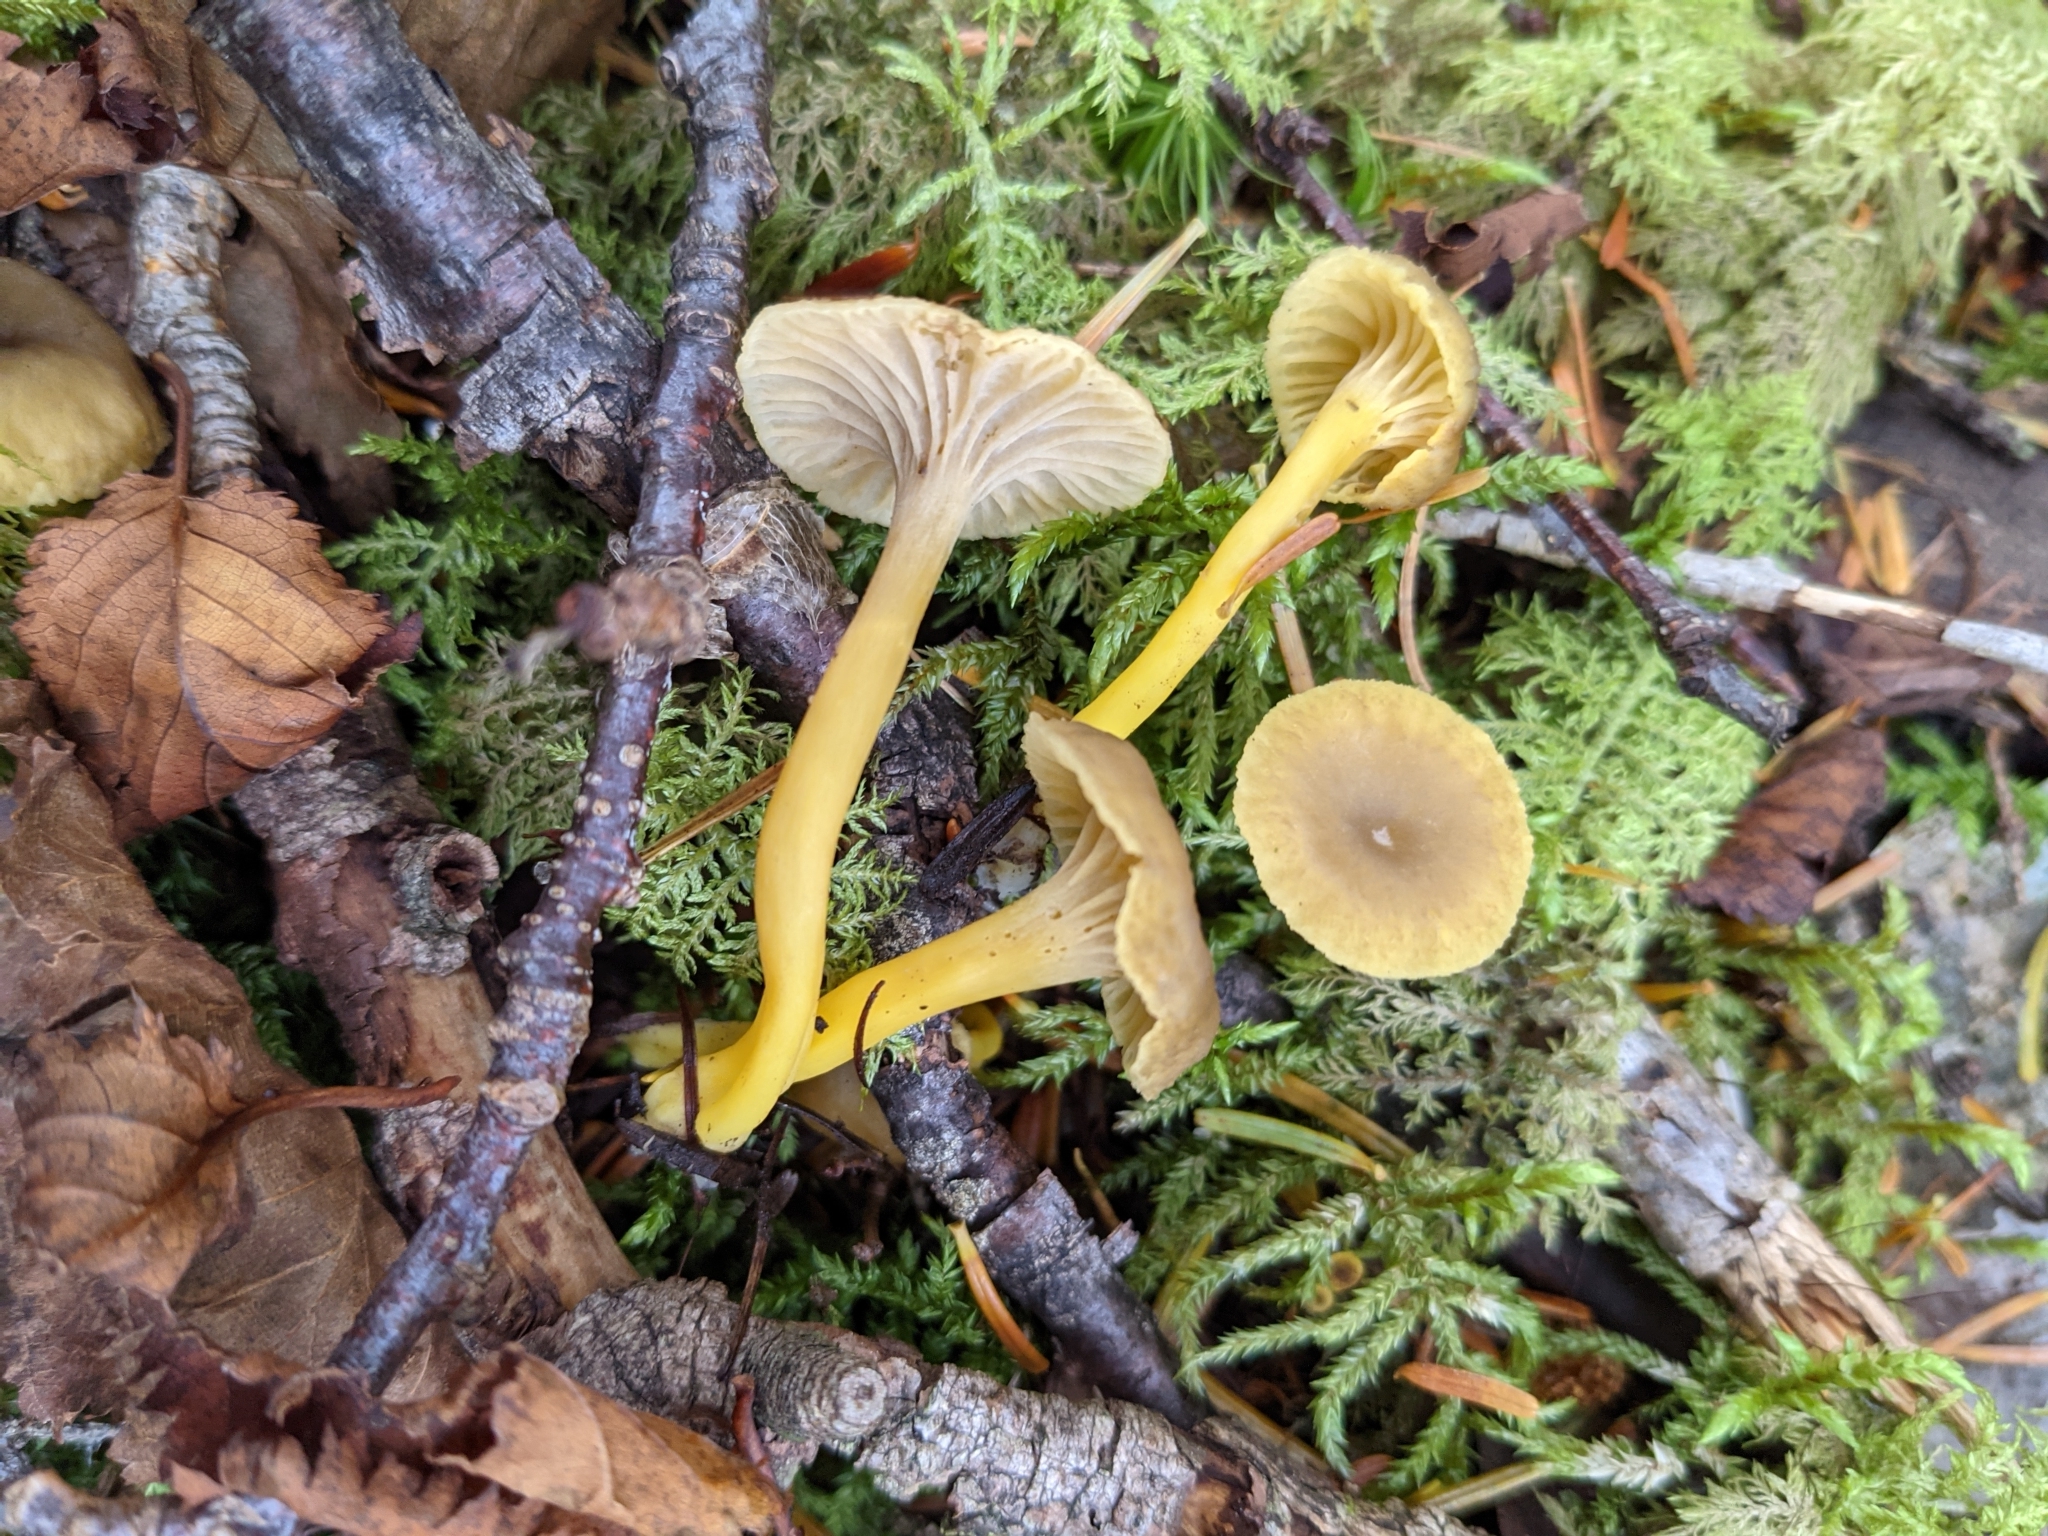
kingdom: Fungi
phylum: Basidiomycota
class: Agaricomycetes
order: Cantharellales
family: Hydnaceae
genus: Craterellus
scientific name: Craterellus tubaeformis
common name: Yellowfoot
